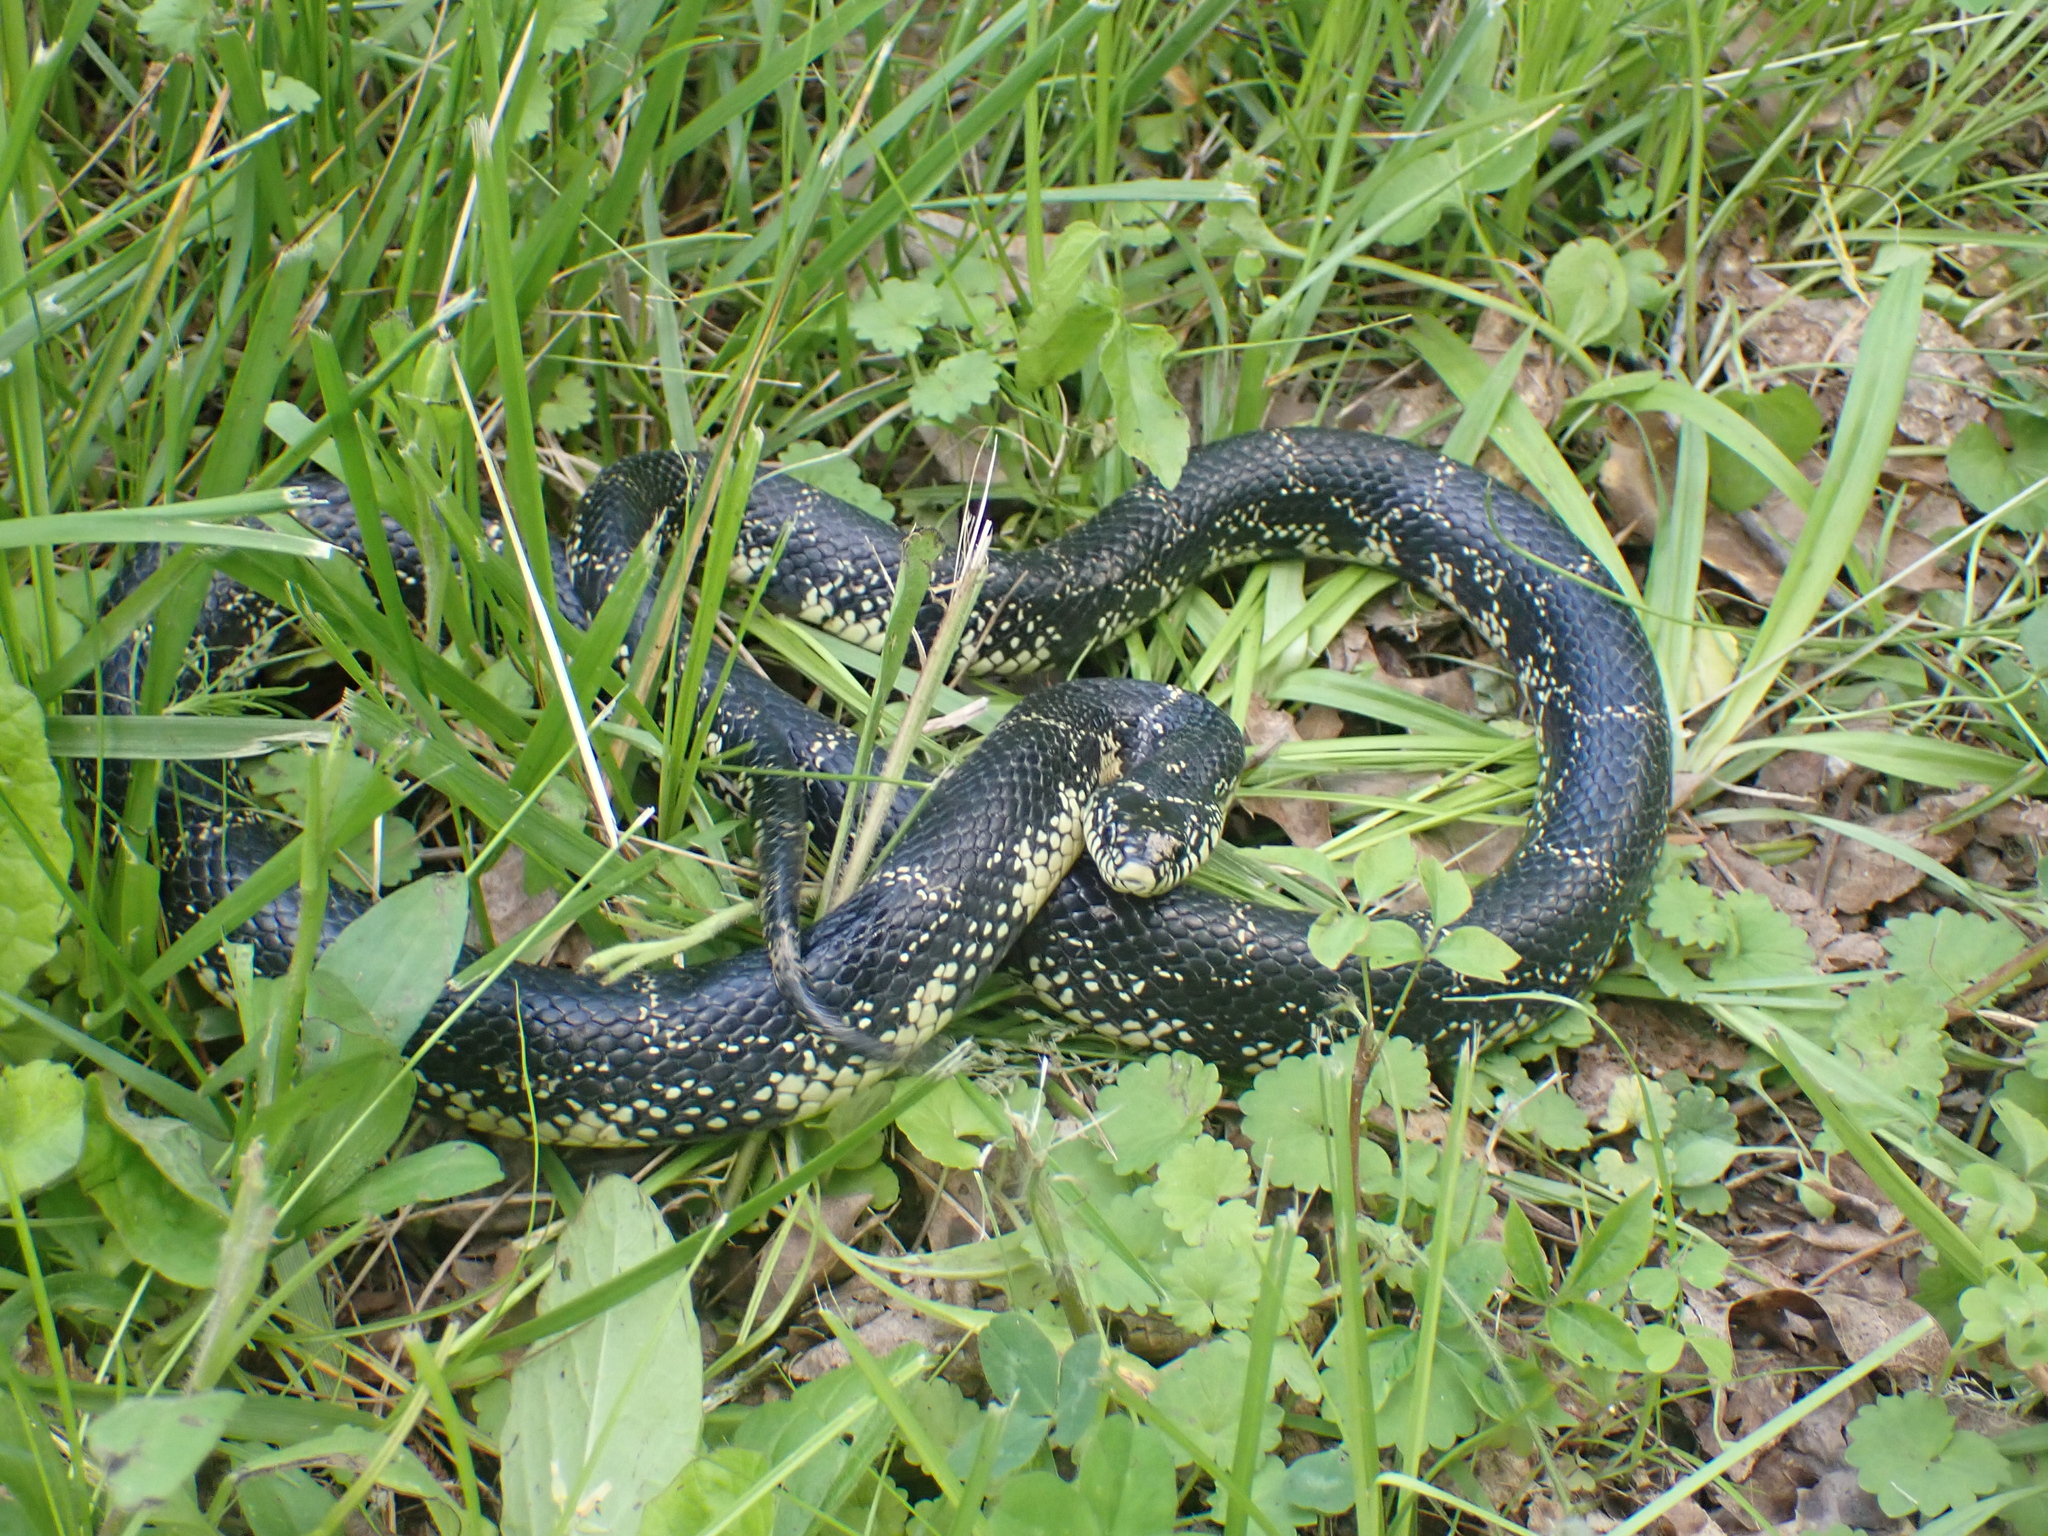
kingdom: Animalia
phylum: Chordata
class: Squamata
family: Colubridae
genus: Lampropeltis
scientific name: Lampropeltis nigra
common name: Black kingsnake
